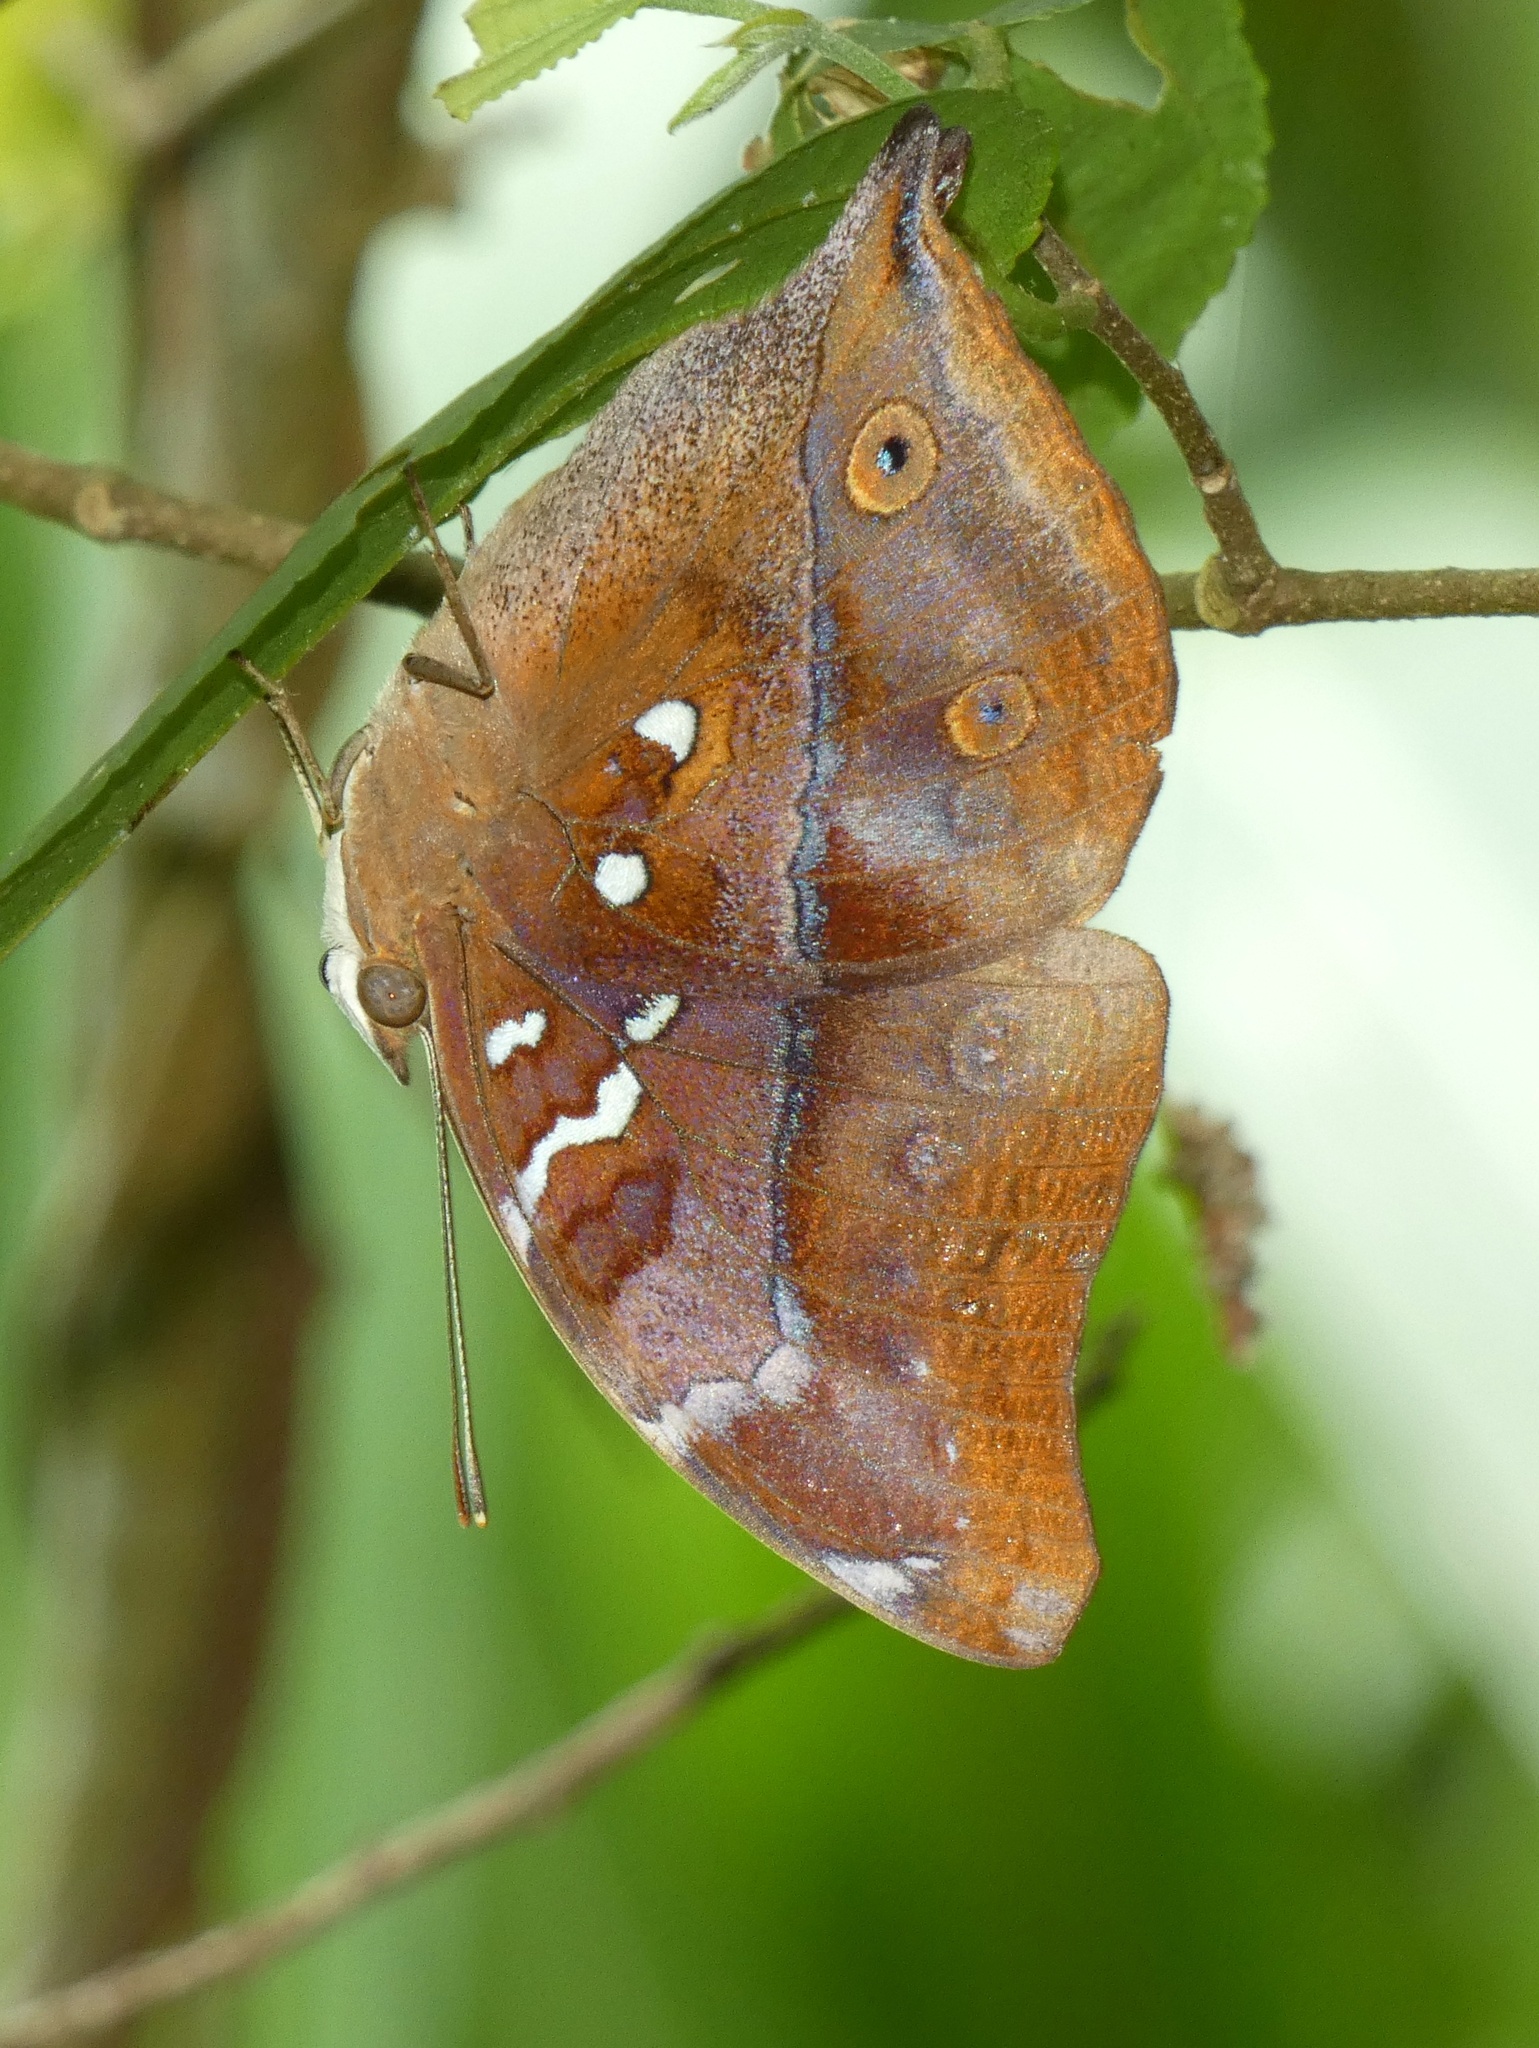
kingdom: Animalia
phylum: Arthropoda
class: Insecta
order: Lepidoptera
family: Nymphalidae
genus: Doleschallia
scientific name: Doleschallia bisaltide
